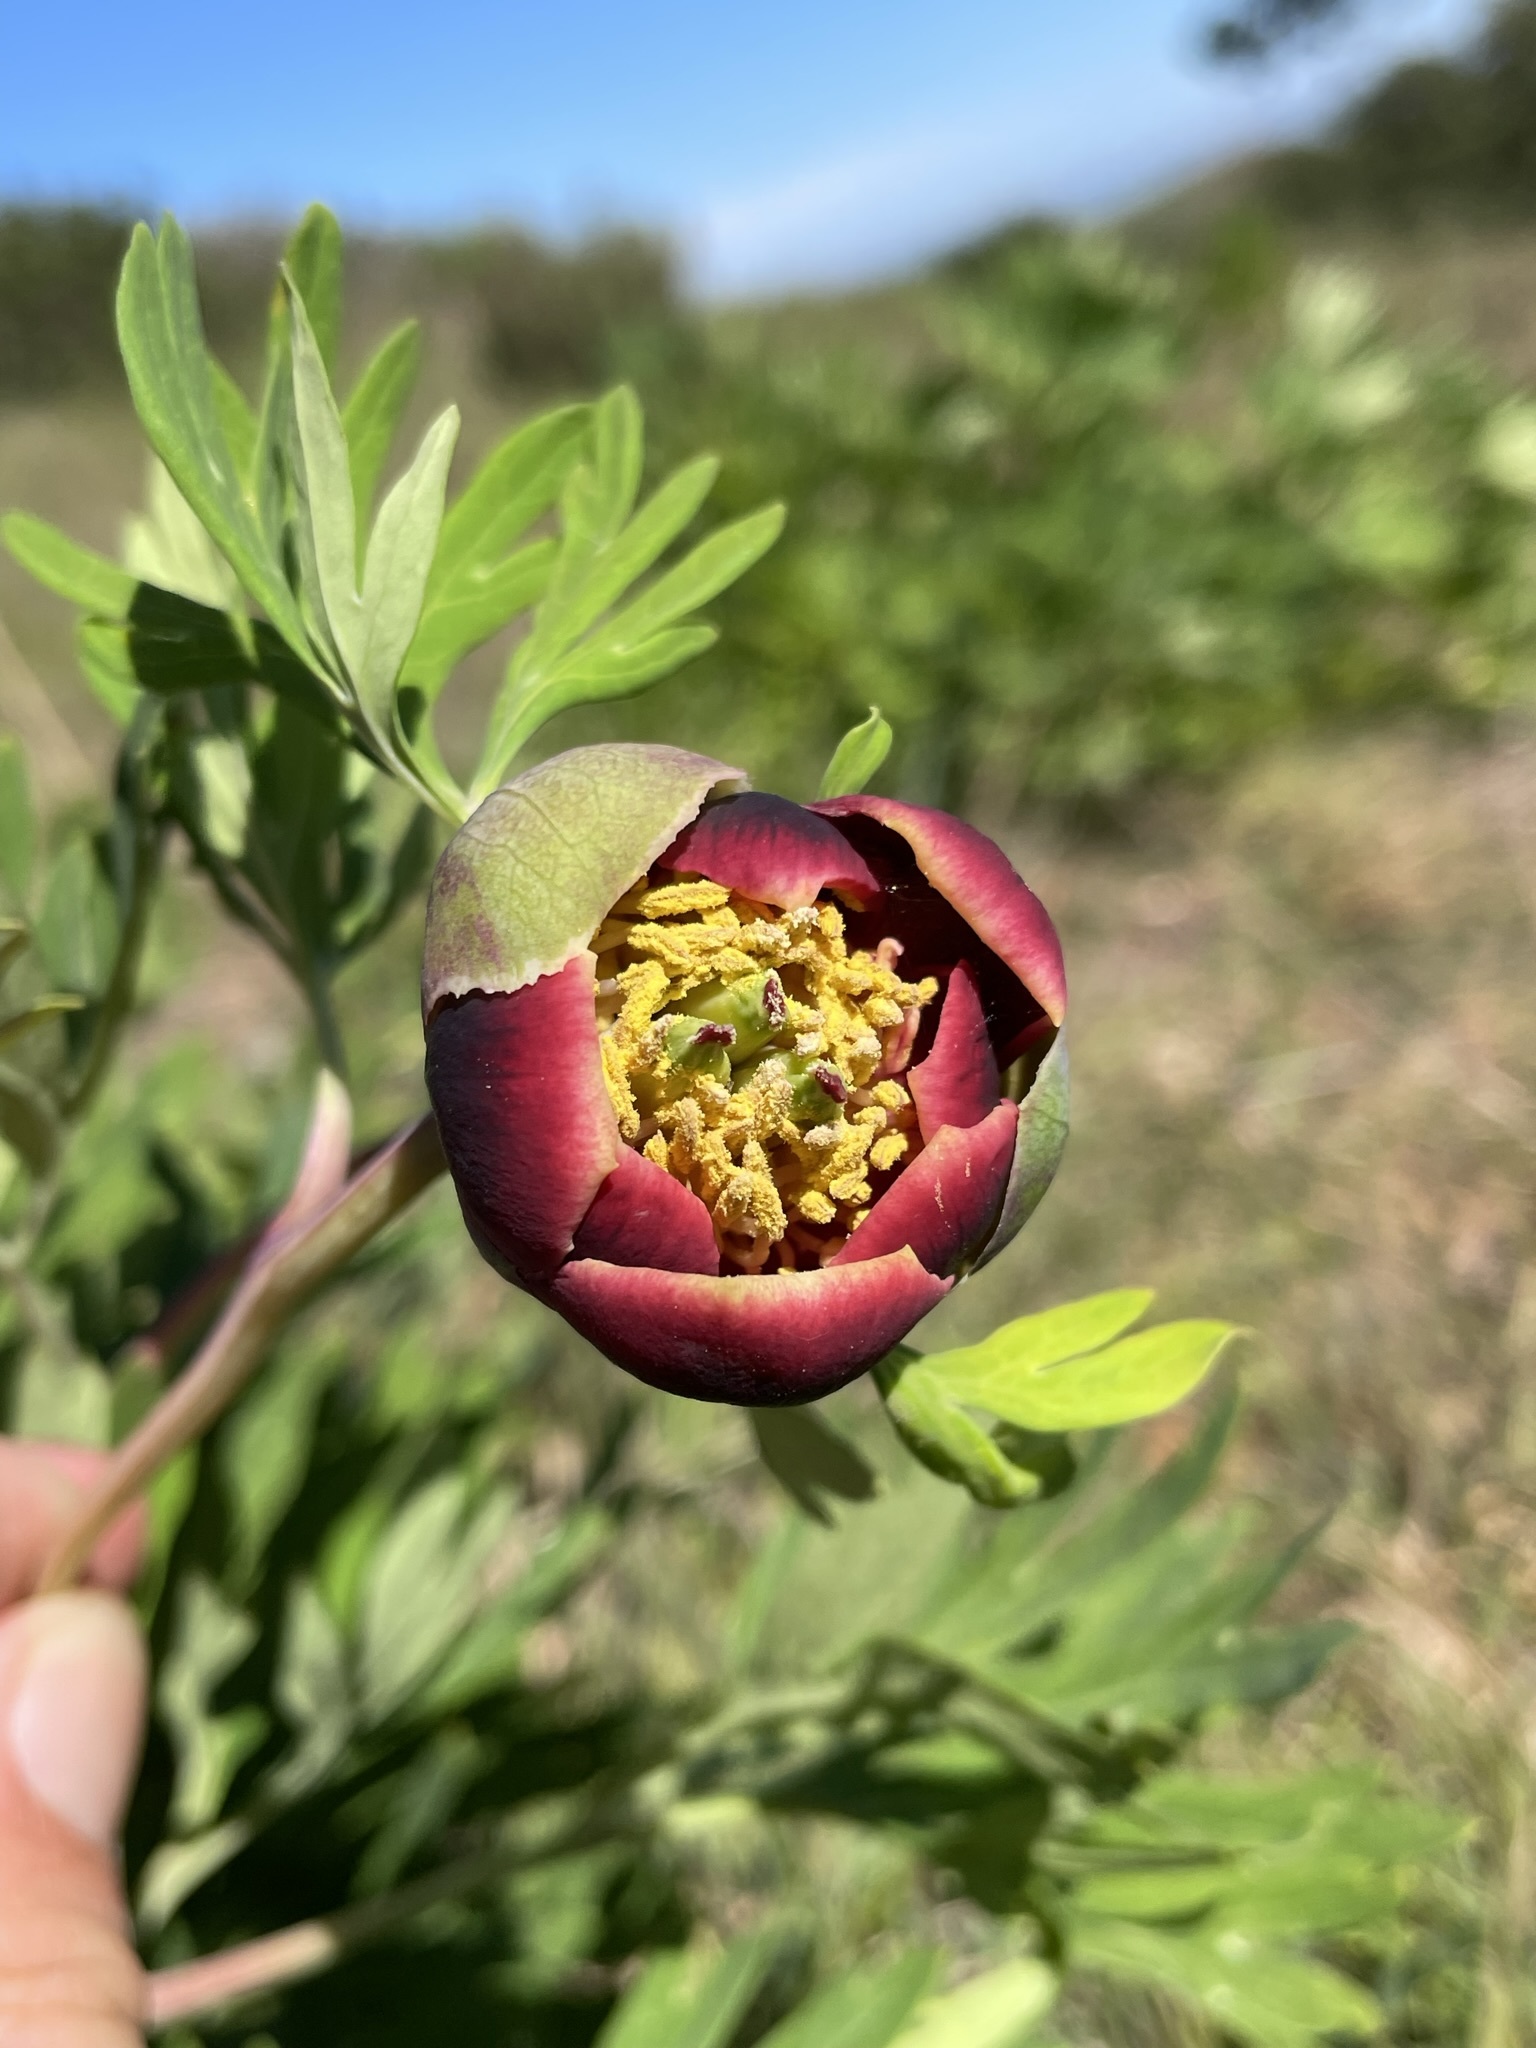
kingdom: Plantae
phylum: Tracheophyta
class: Magnoliopsida
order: Saxifragales
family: Paeoniaceae
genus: Paeonia
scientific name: Paeonia californica
